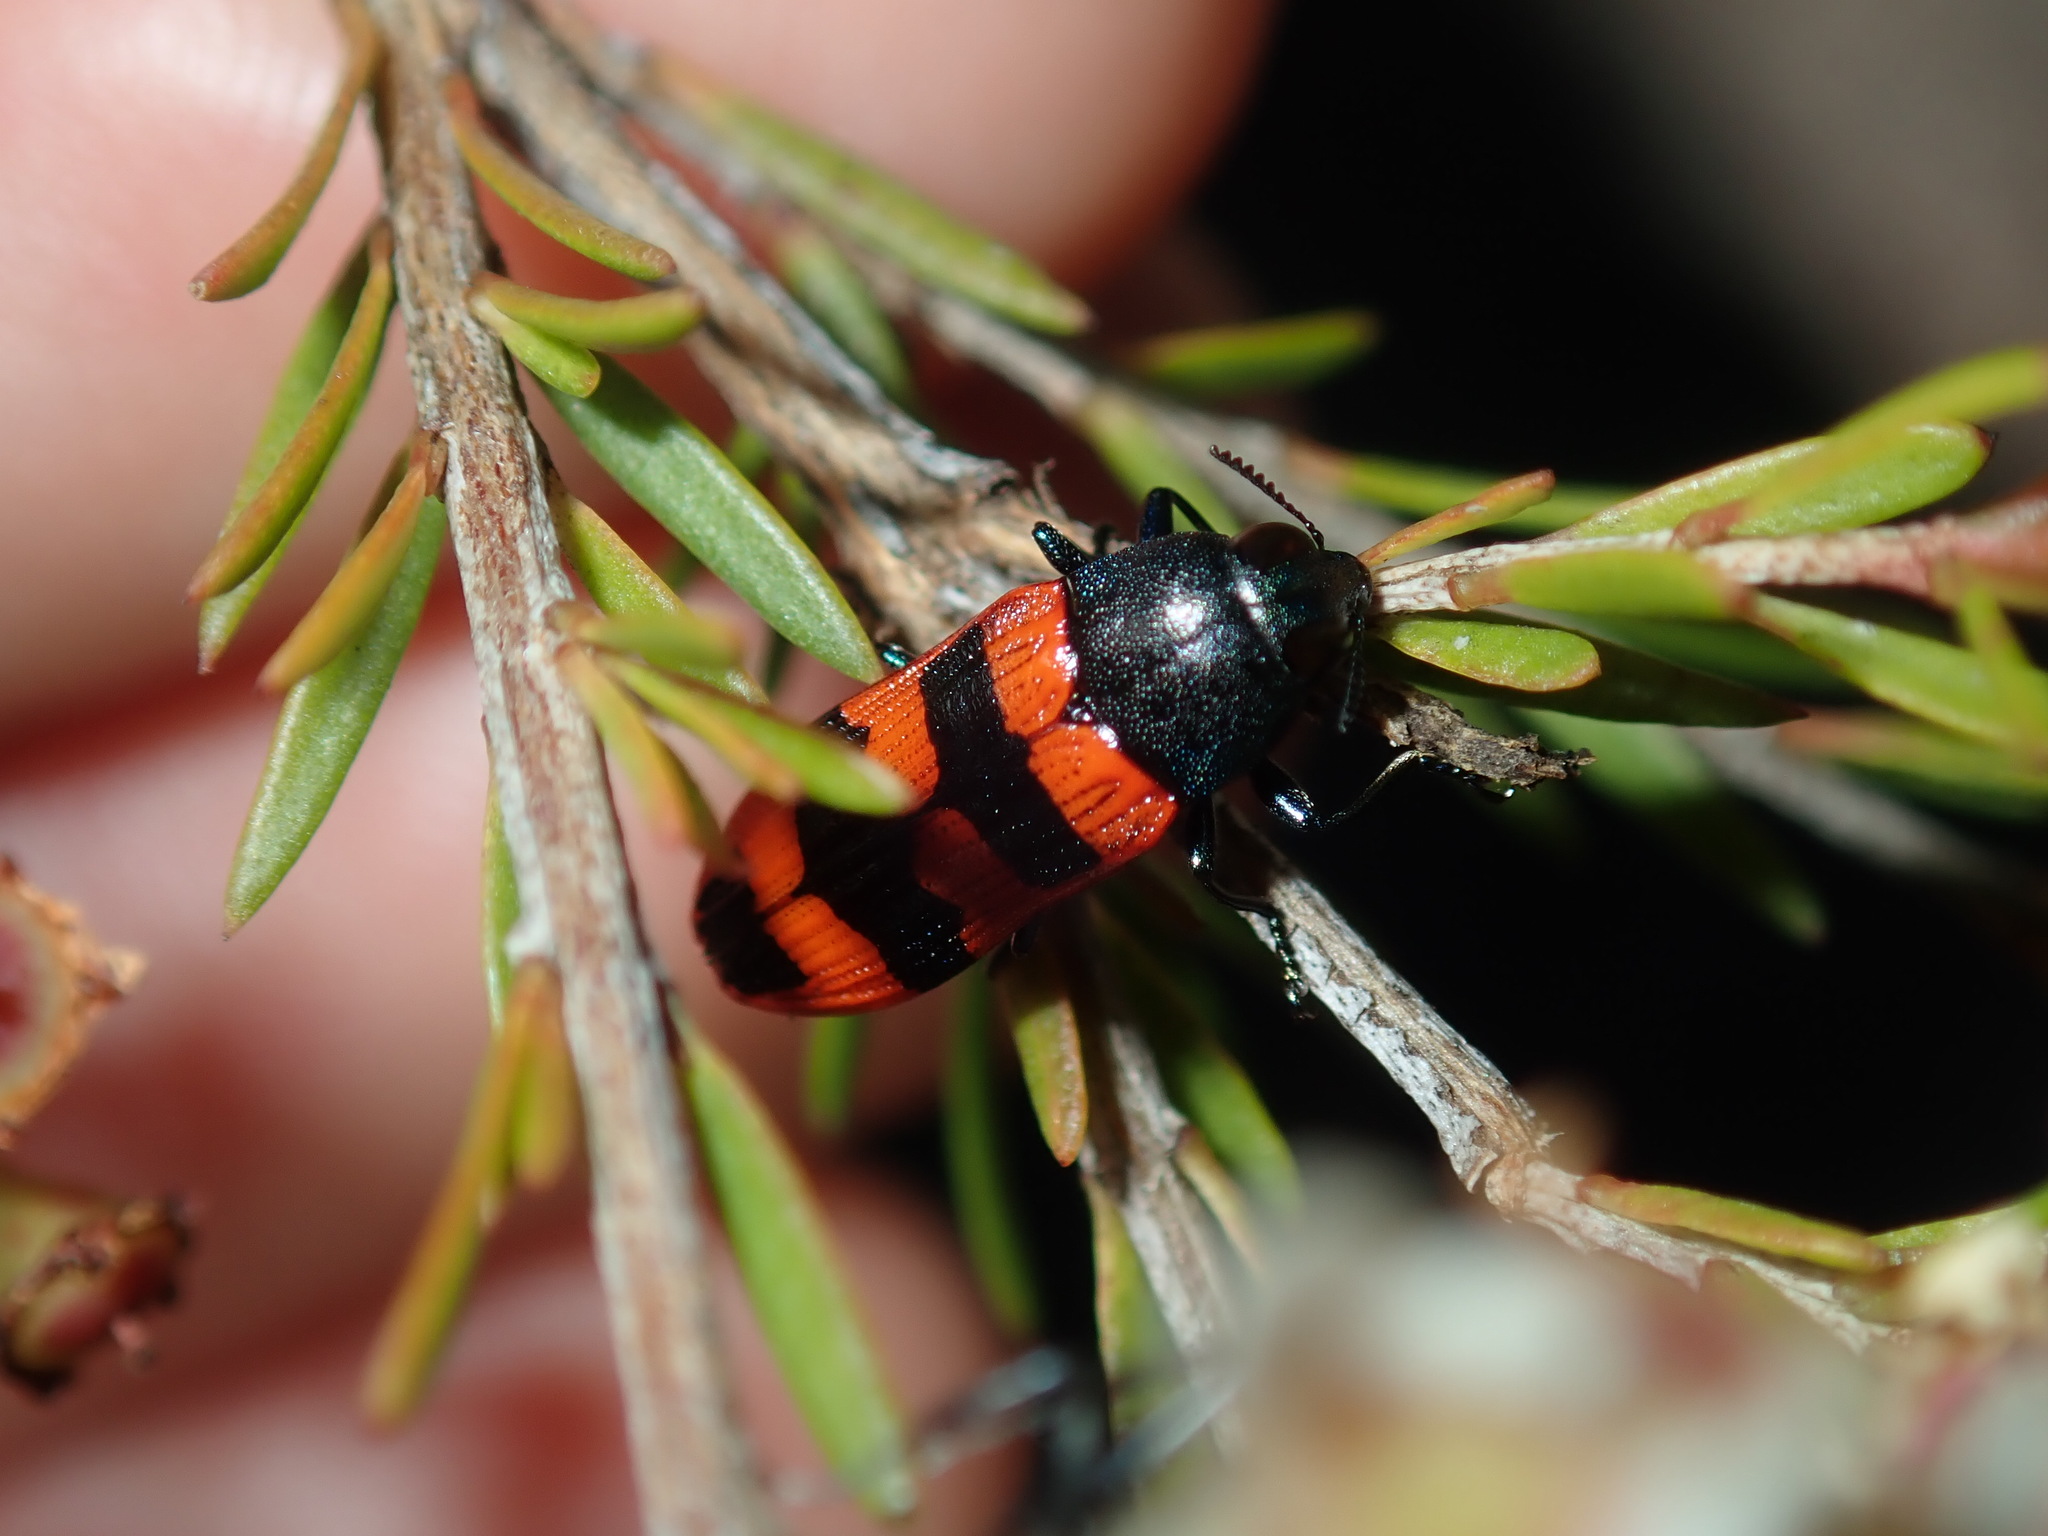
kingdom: Animalia
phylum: Arthropoda
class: Insecta
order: Coleoptera
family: Buprestidae
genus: Castiarina
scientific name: Castiarina crenata
